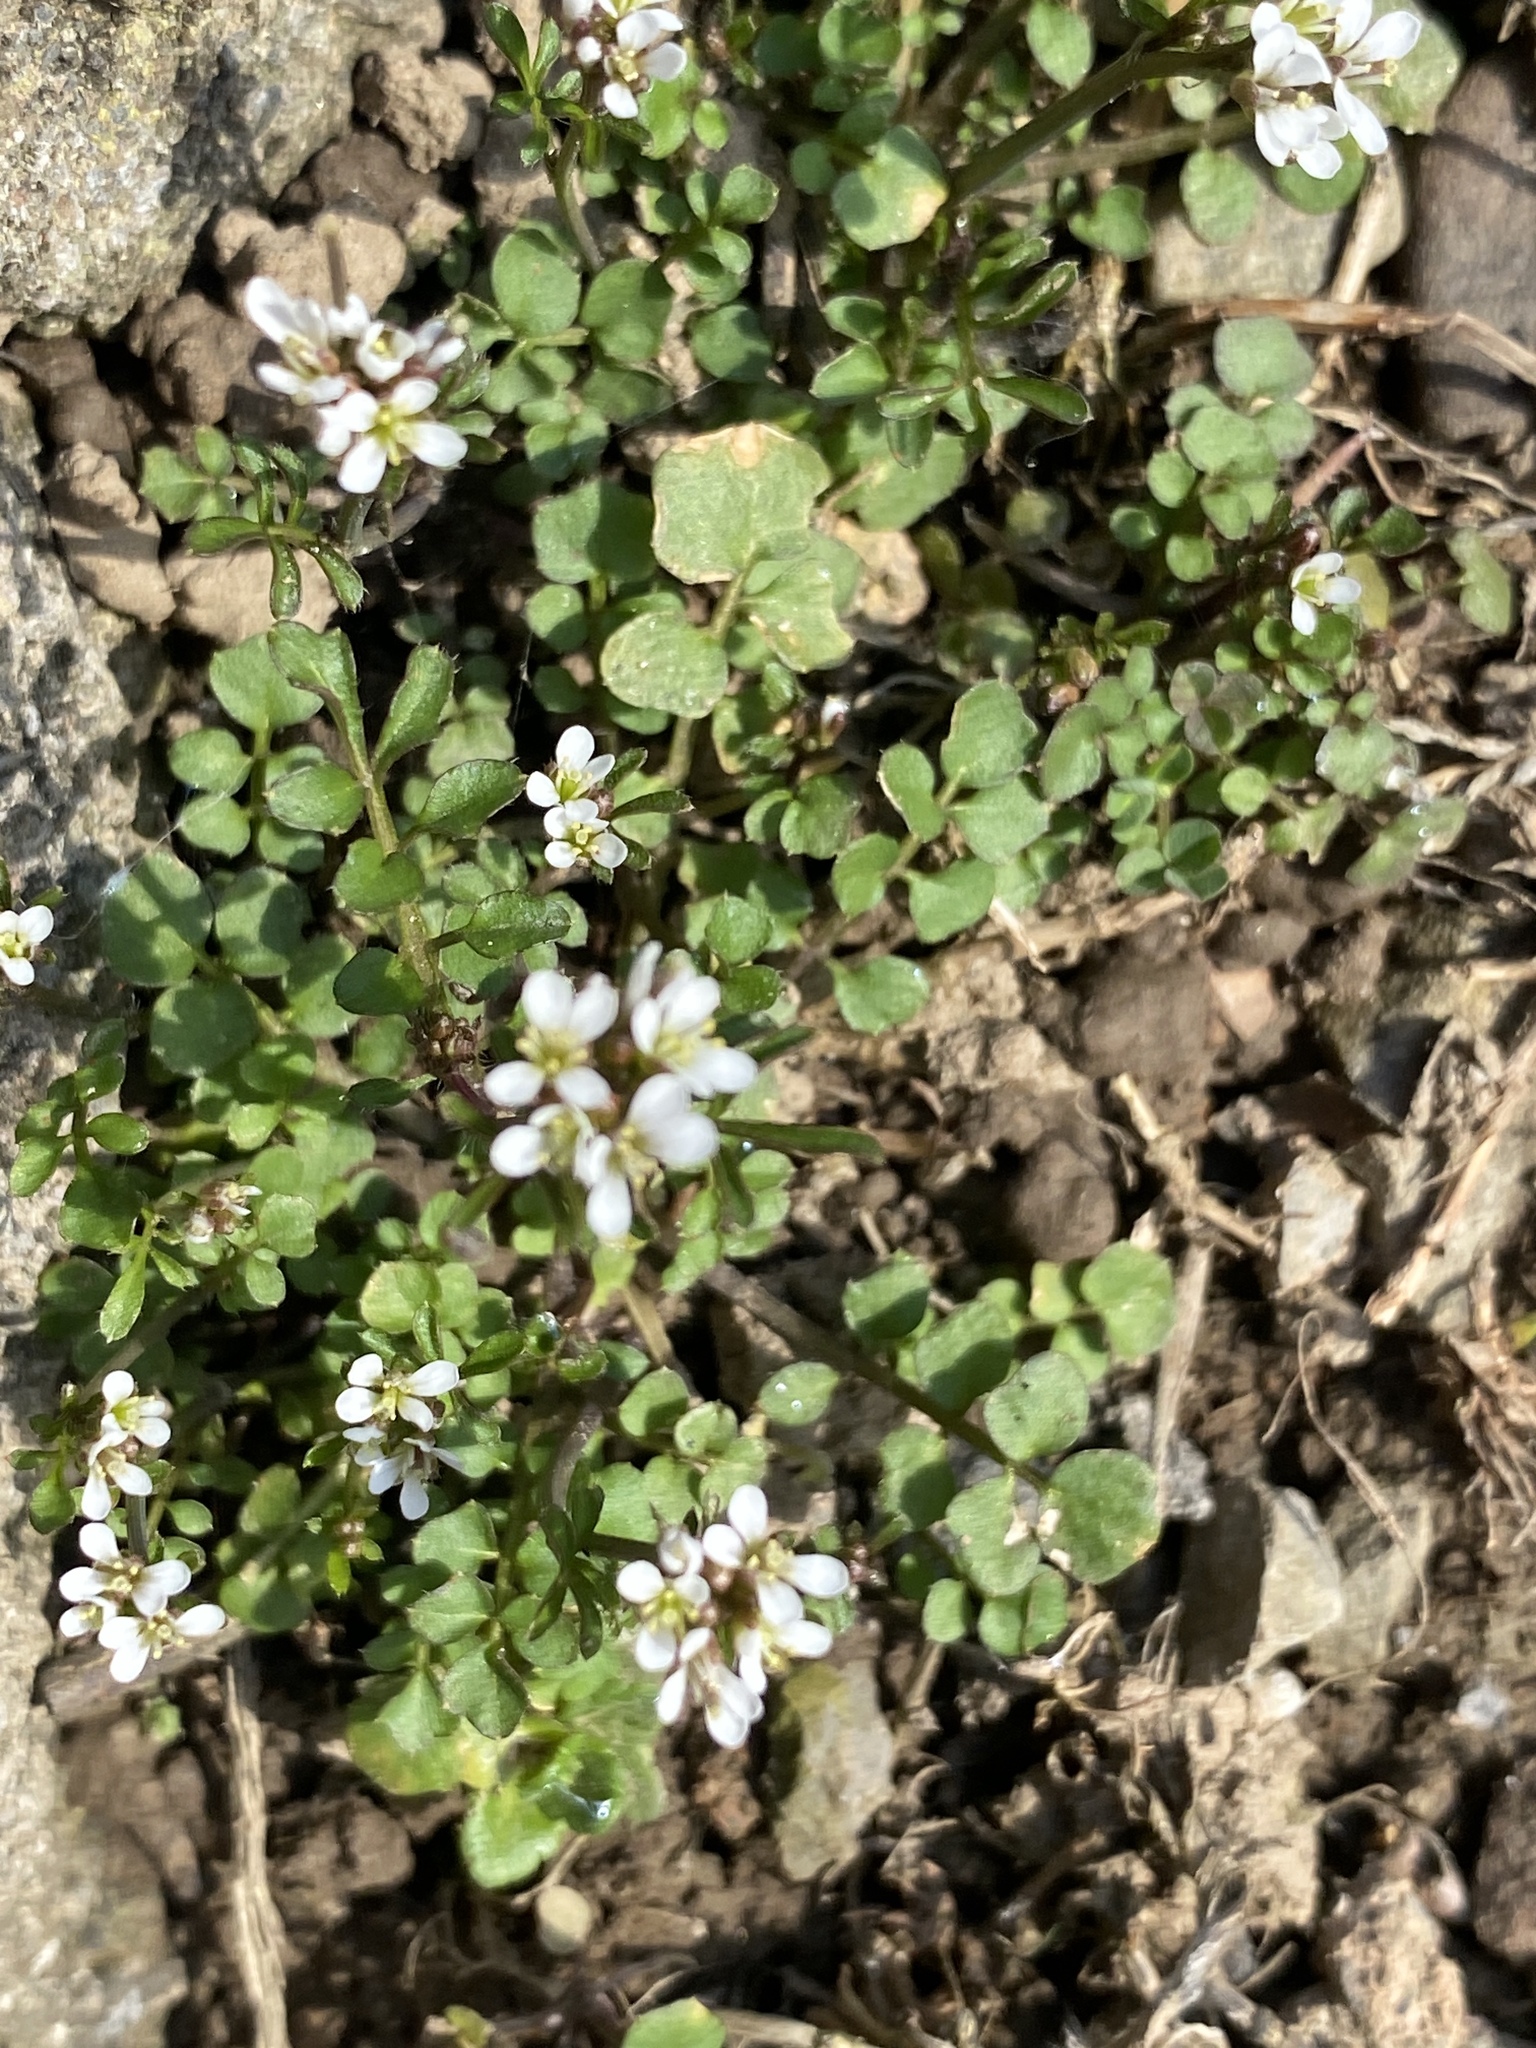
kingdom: Plantae
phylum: Tracheophyta
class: Magnoliopsida
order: Brassicales
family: Brassicaceae
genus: Cardamine
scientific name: Cardamine hirsuta
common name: Hairy bittercress
